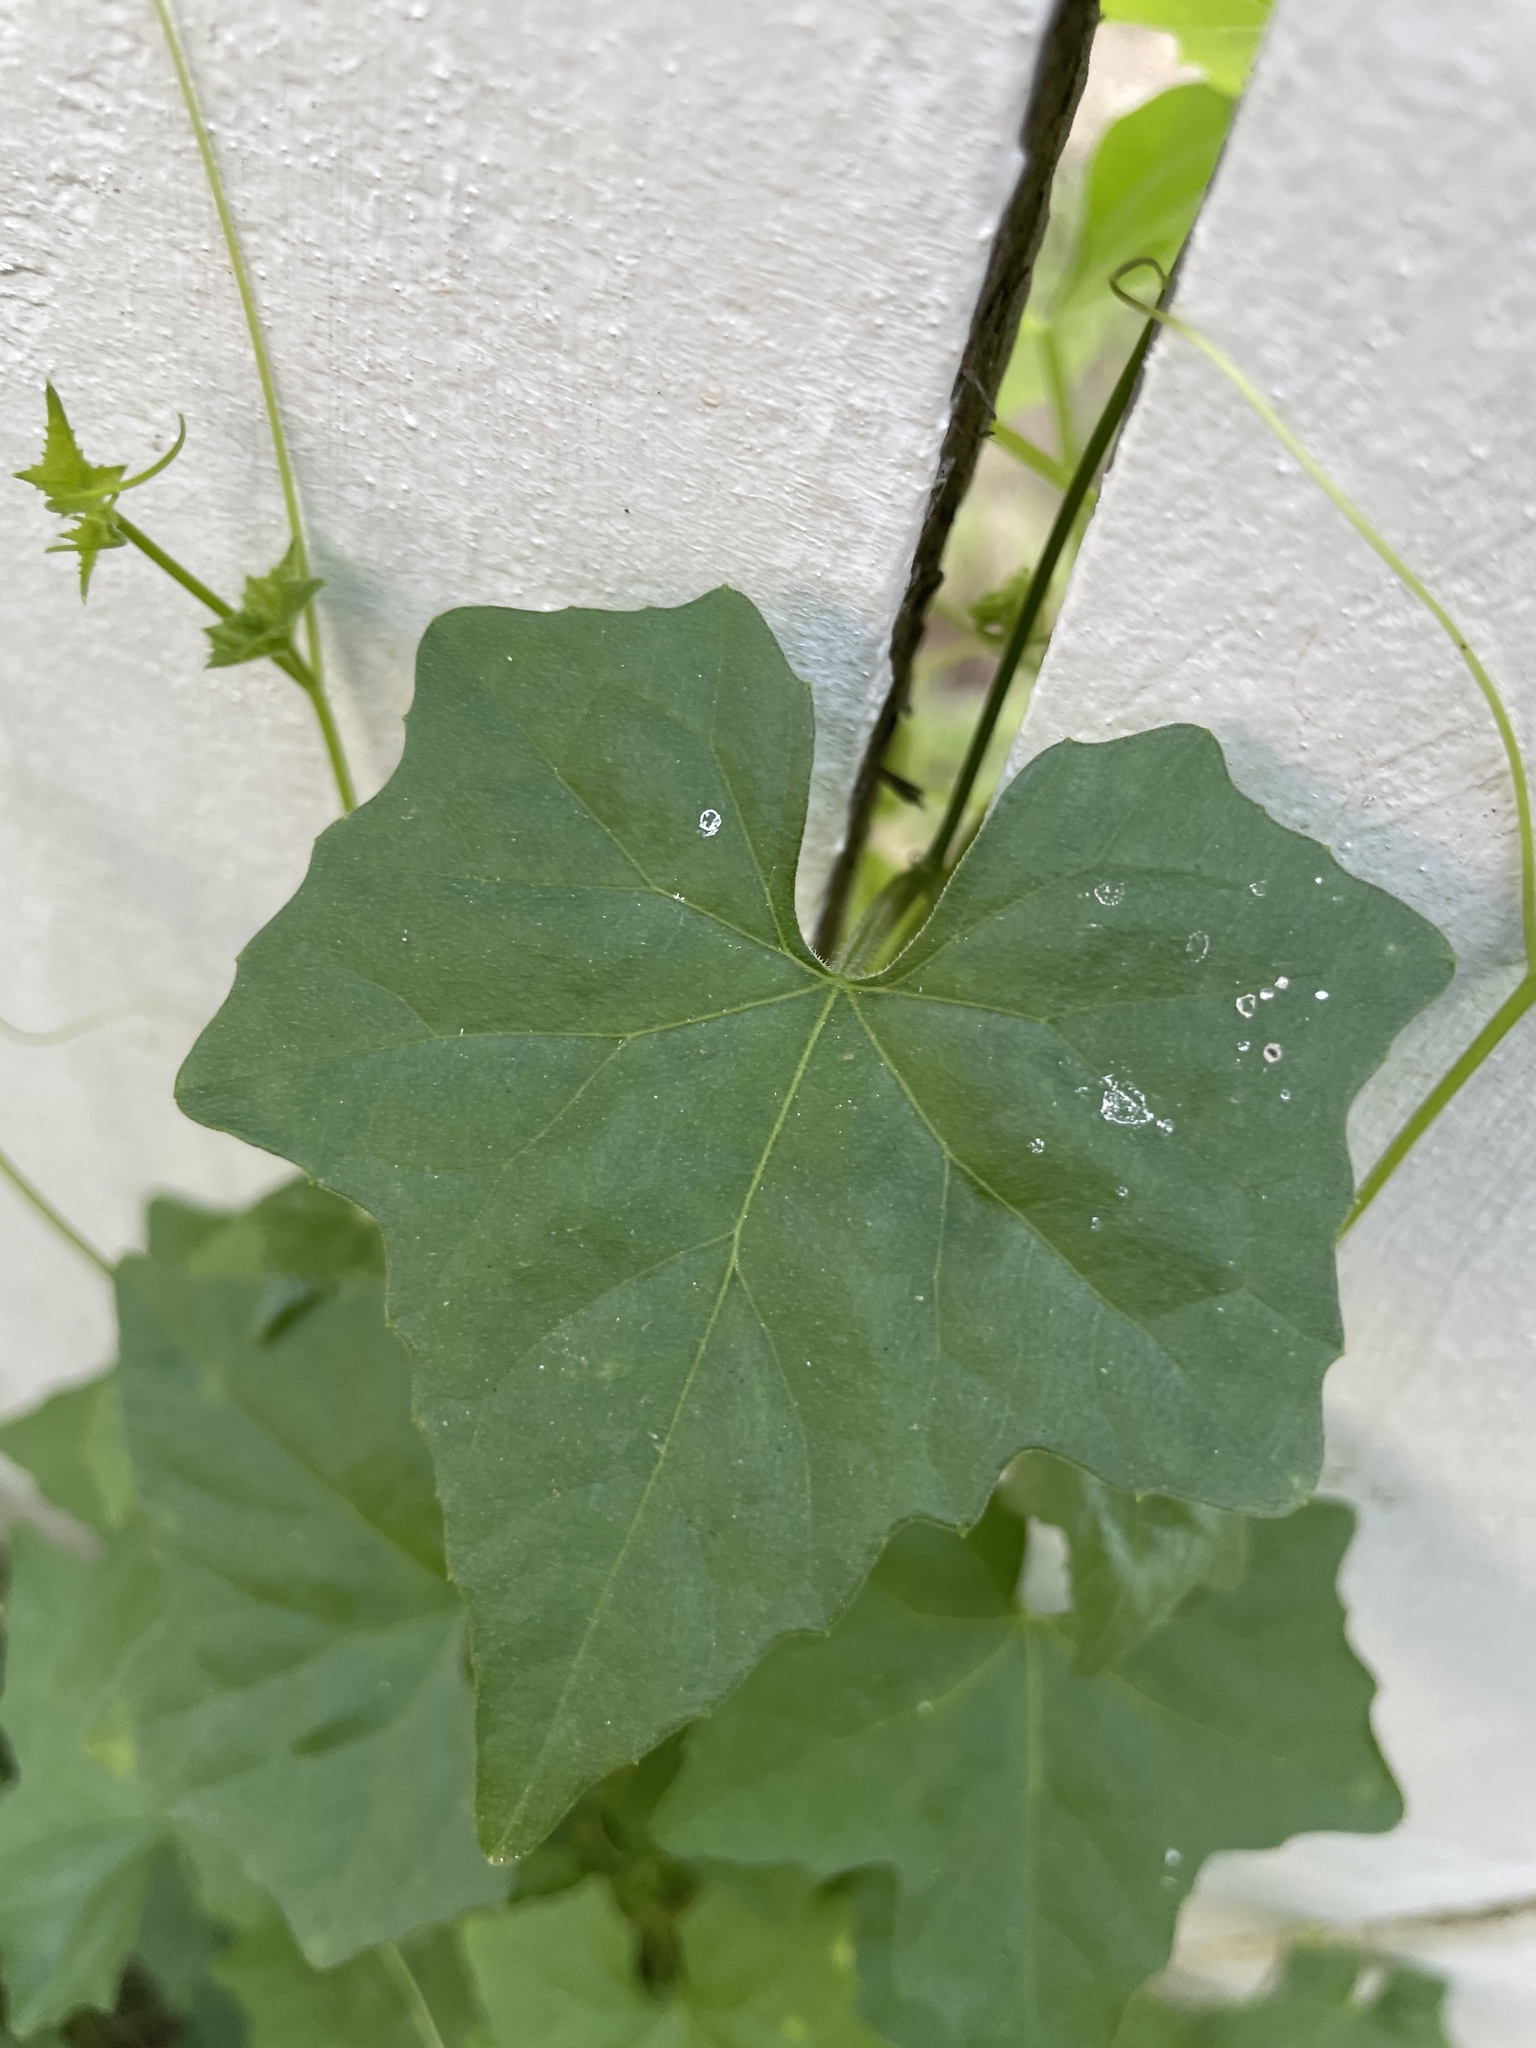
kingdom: Plantae
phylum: Tracheophyta
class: Magnoliopsida
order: Cucurbitales
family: Cucurbitaceae
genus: Melothria
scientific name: Melothria pendula
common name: Creeping-cucumber
